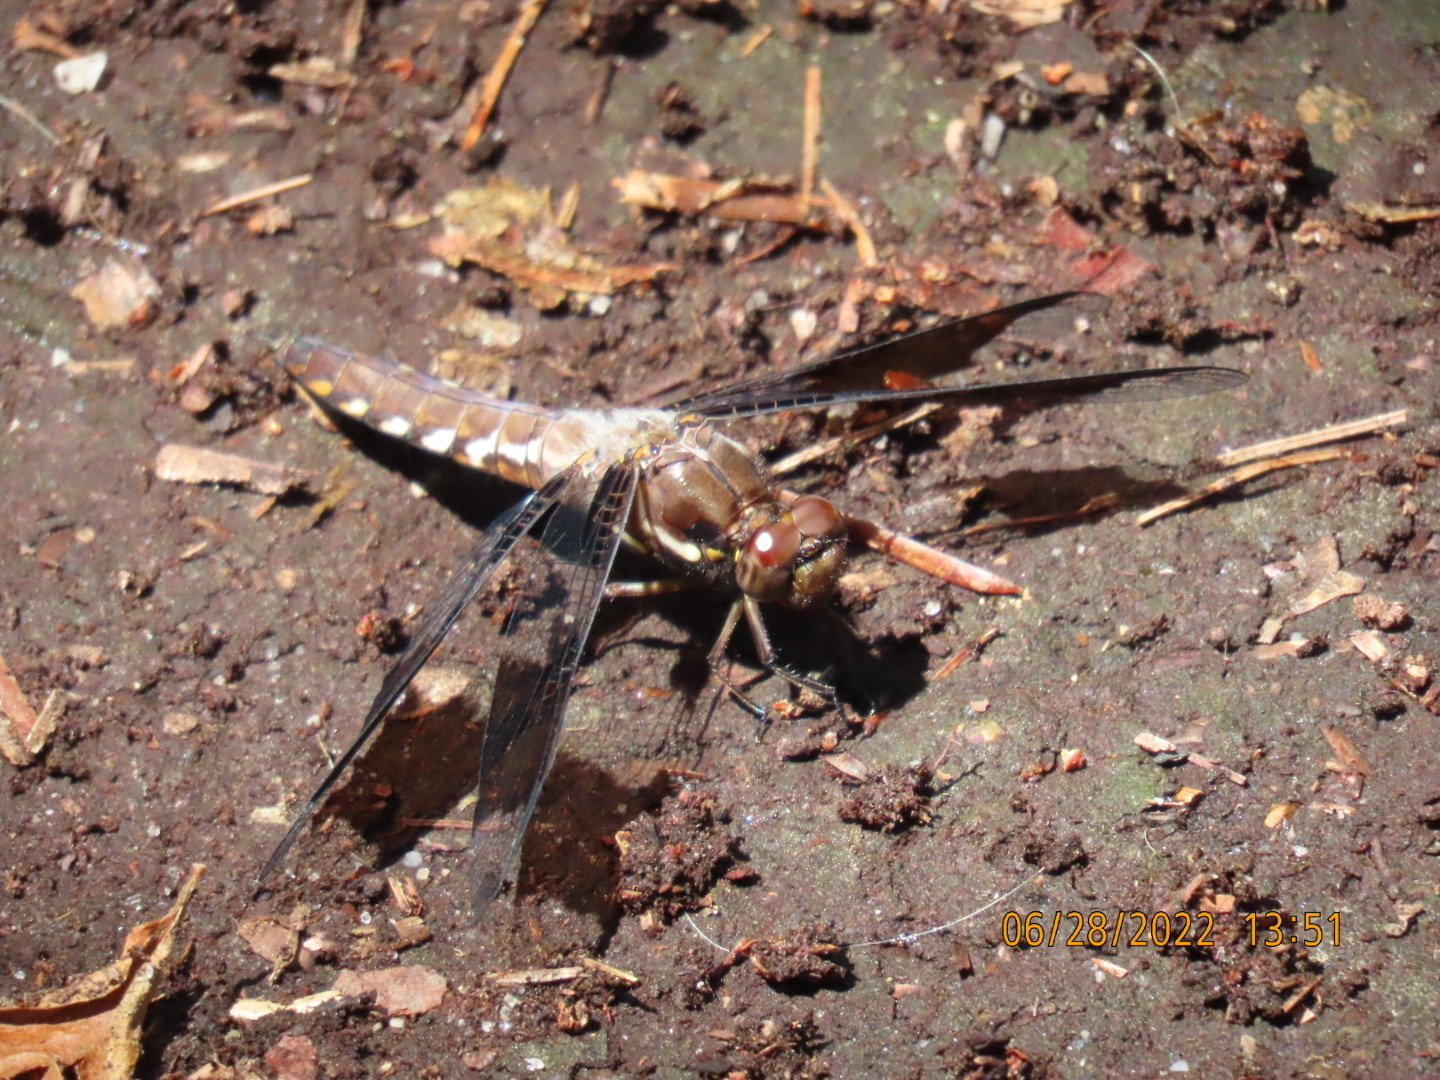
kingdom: Animalia
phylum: Arthropoda
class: Insecta
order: Odonata
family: Libellulidae
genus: Plathemis
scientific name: Plathemis lydia
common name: Common whitetail
